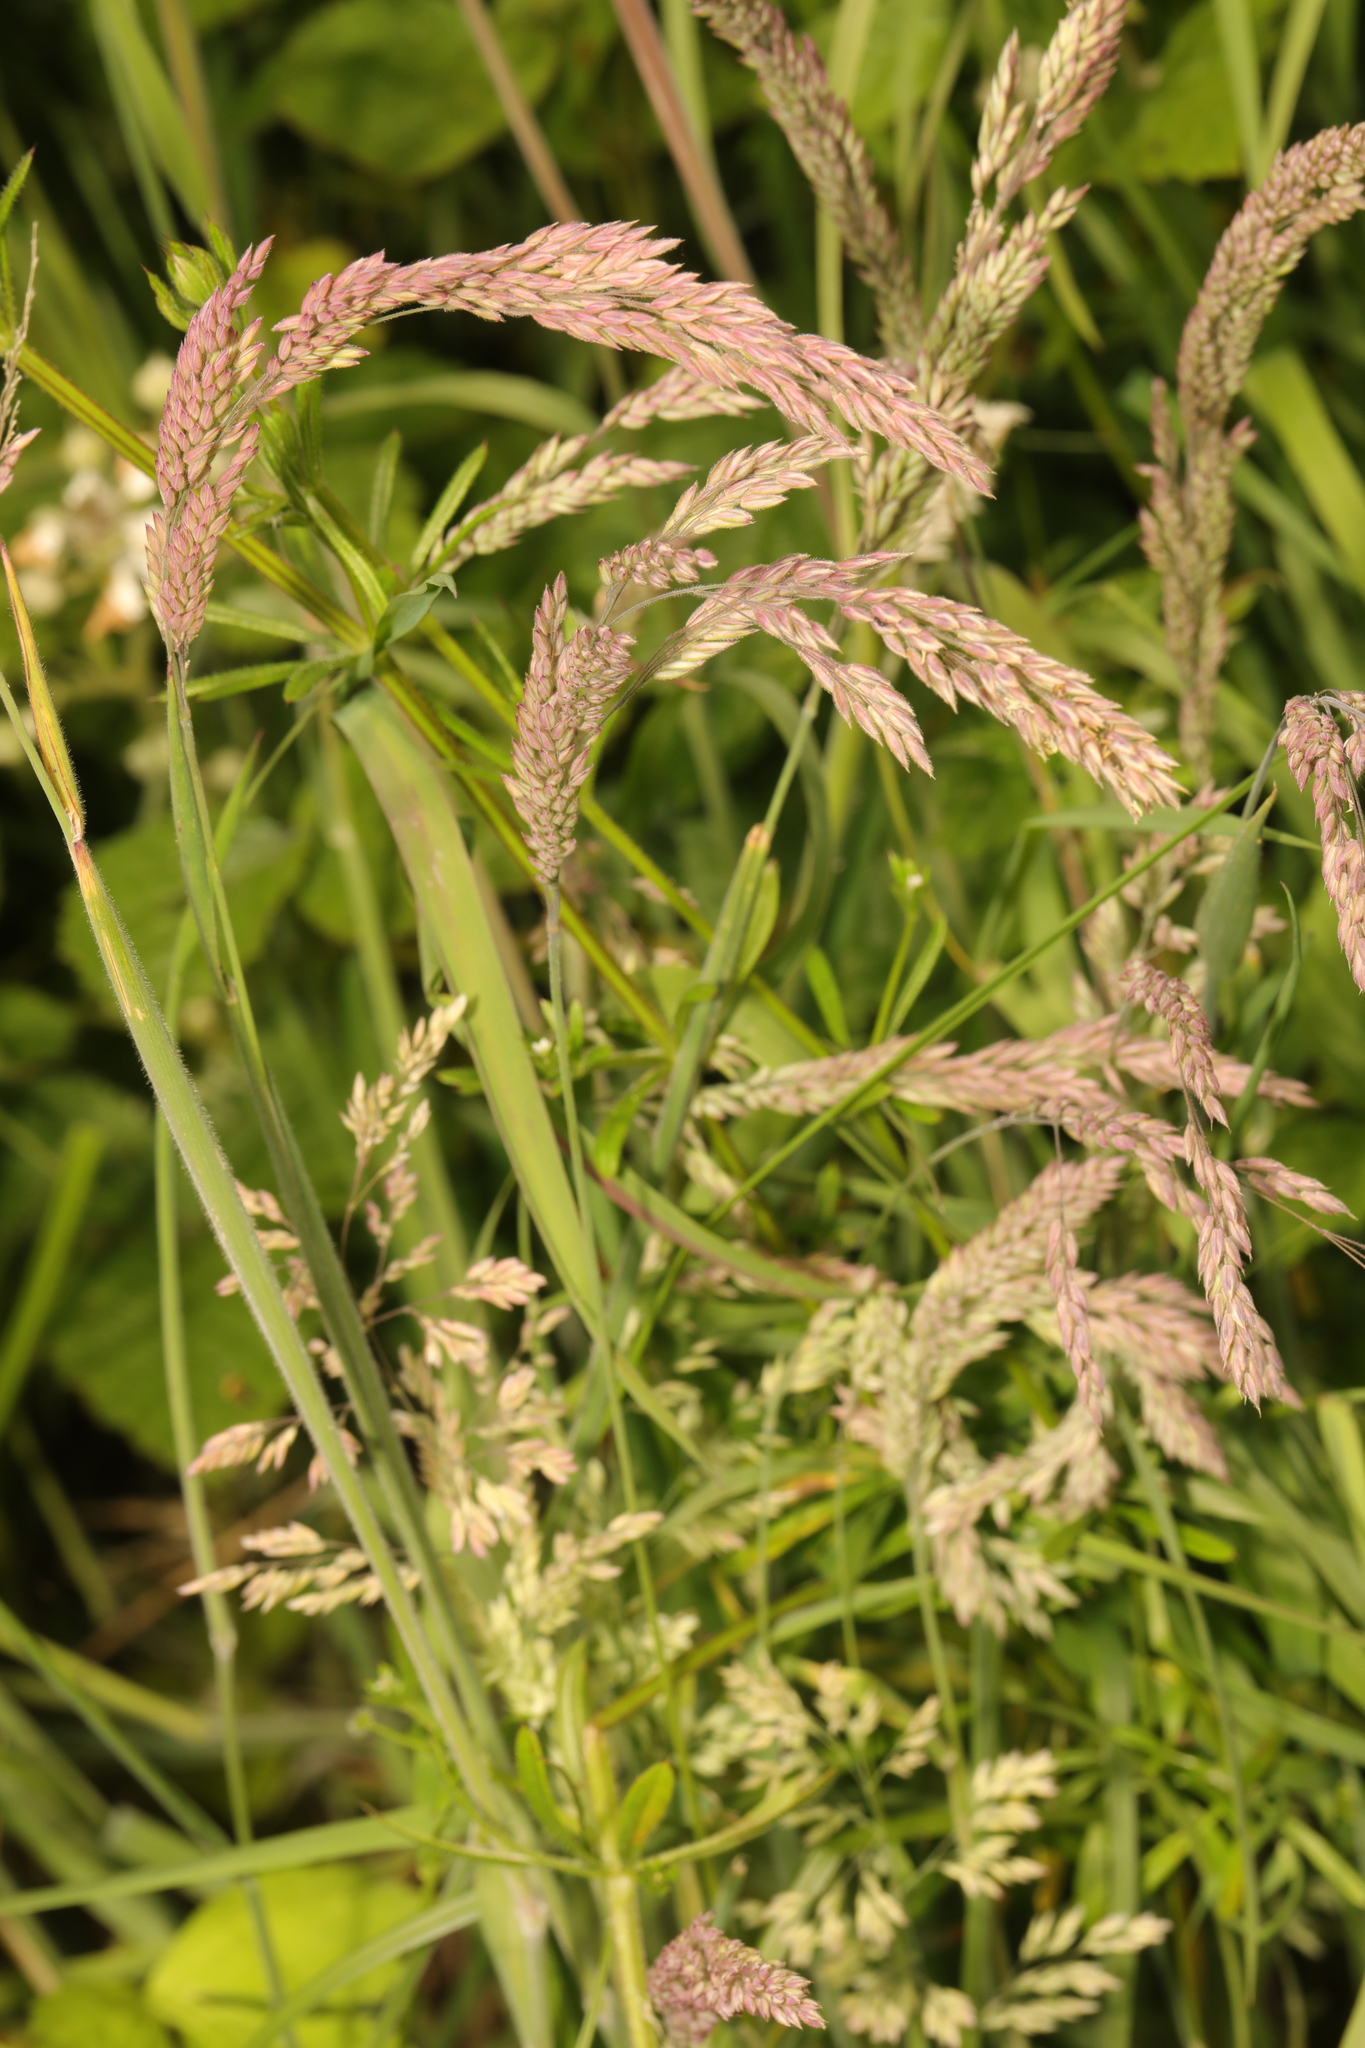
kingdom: Plantae
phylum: Tracheophyta
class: Liliopsida
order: Poales
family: Poaceae
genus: Holcus
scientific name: Holcus lanatus
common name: Yorkshire-fog
